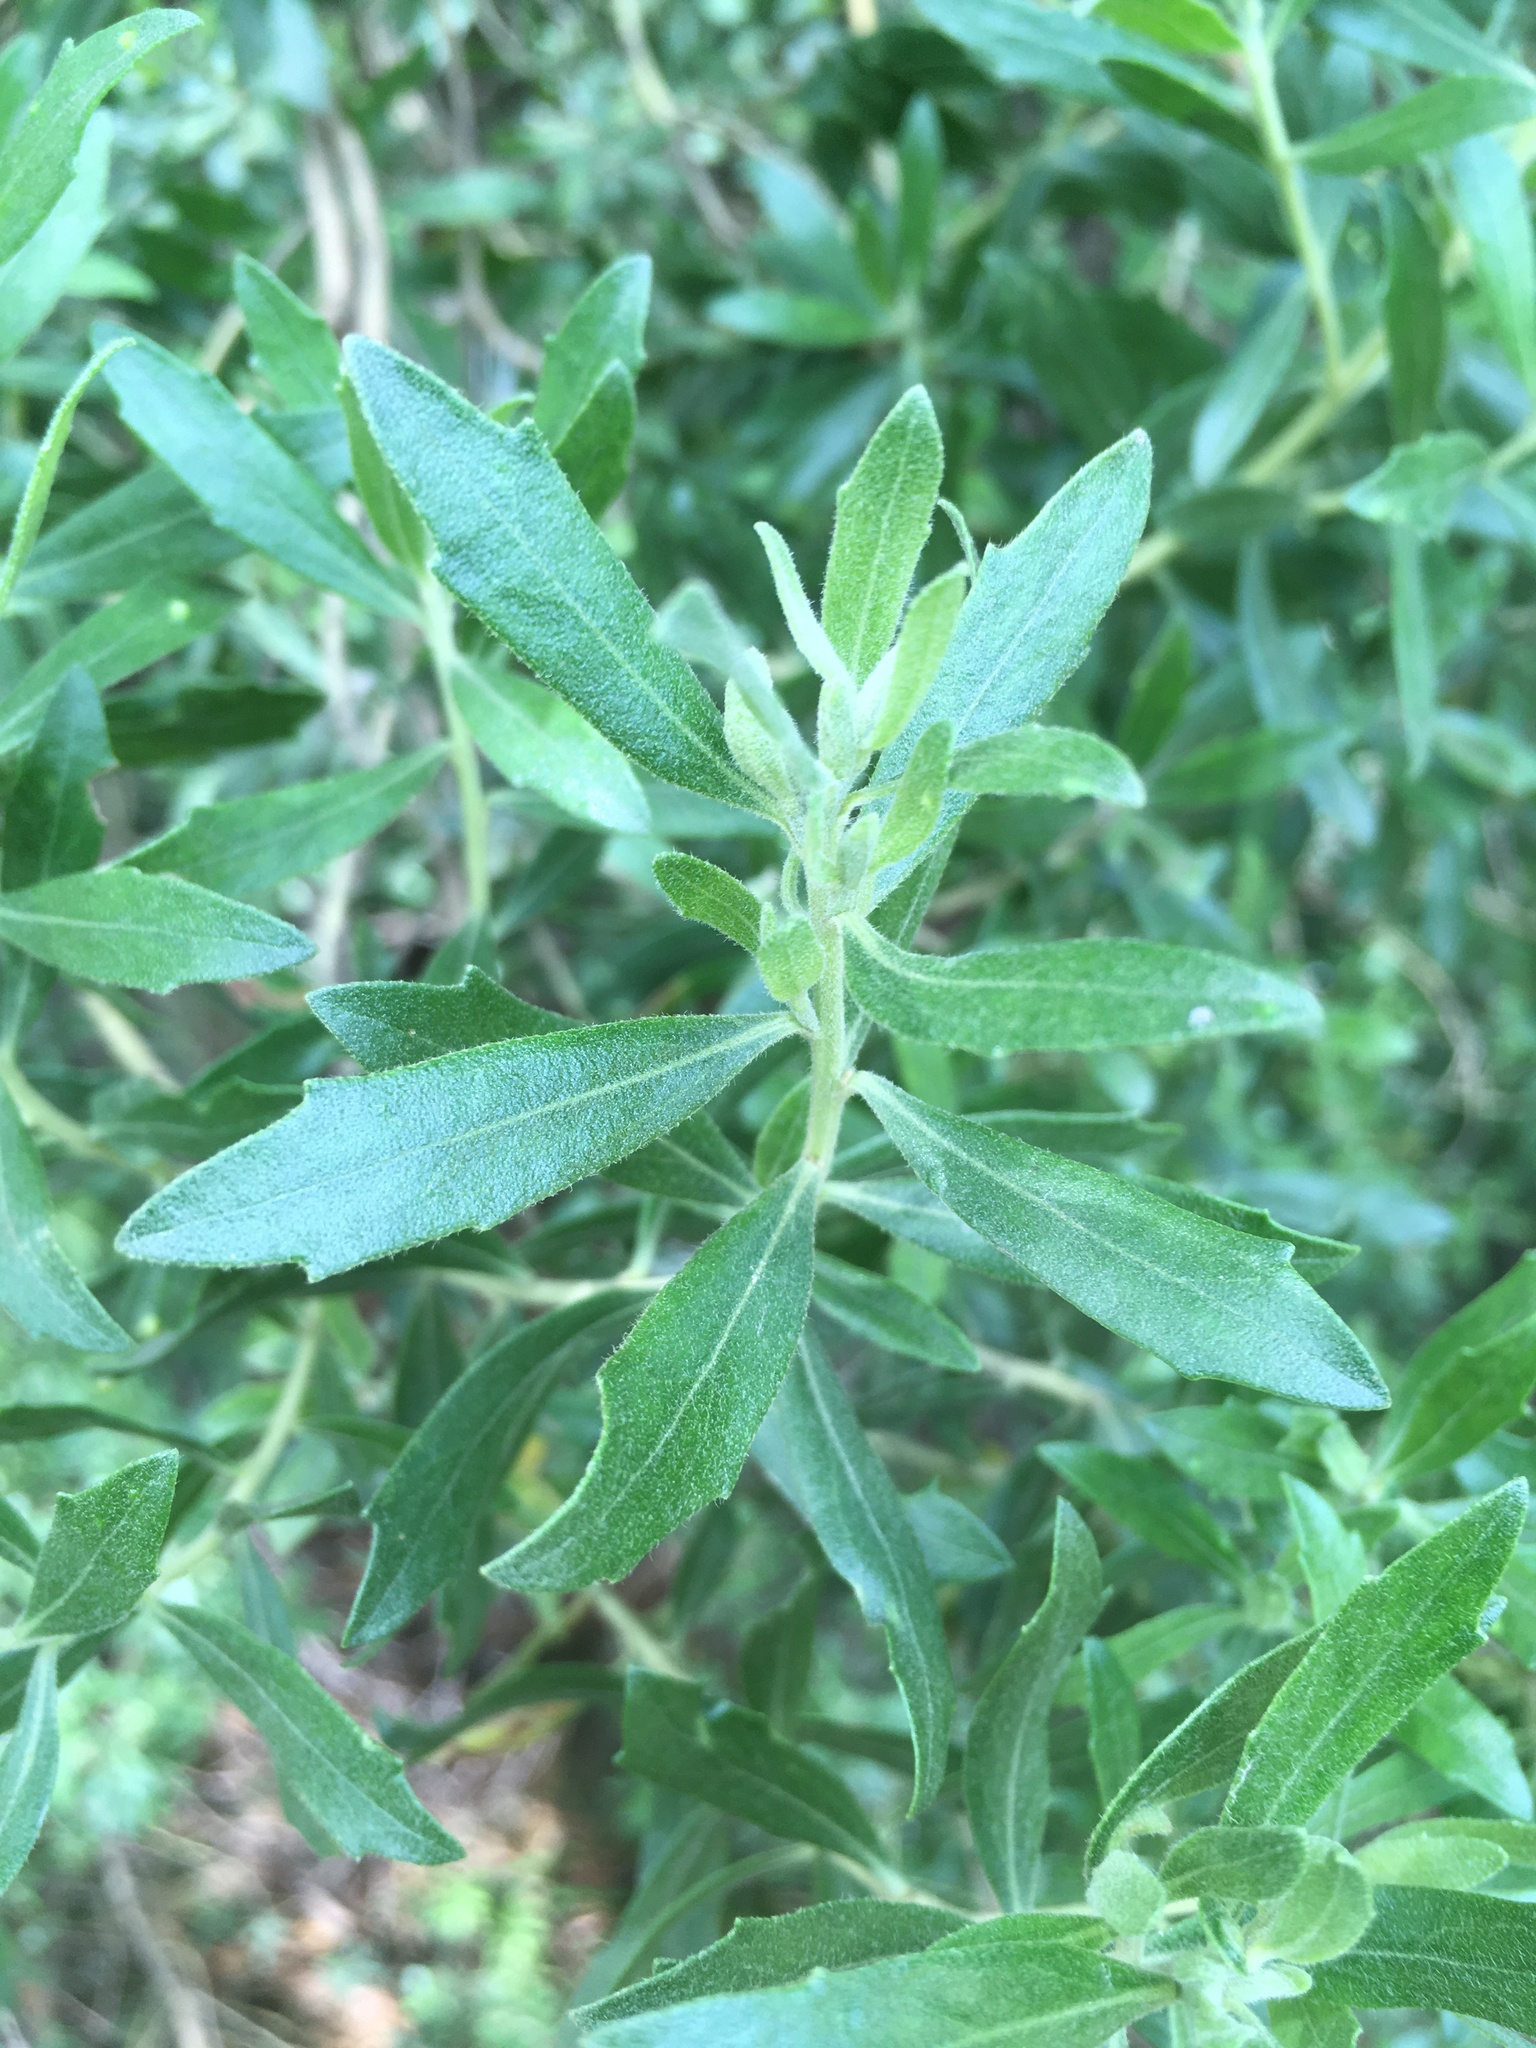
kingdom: Plantae
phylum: Tracheophyta
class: Magnoliopsida
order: Asterales
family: Asteraceae
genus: Baccharis
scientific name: Baccharis dracunculifolia
